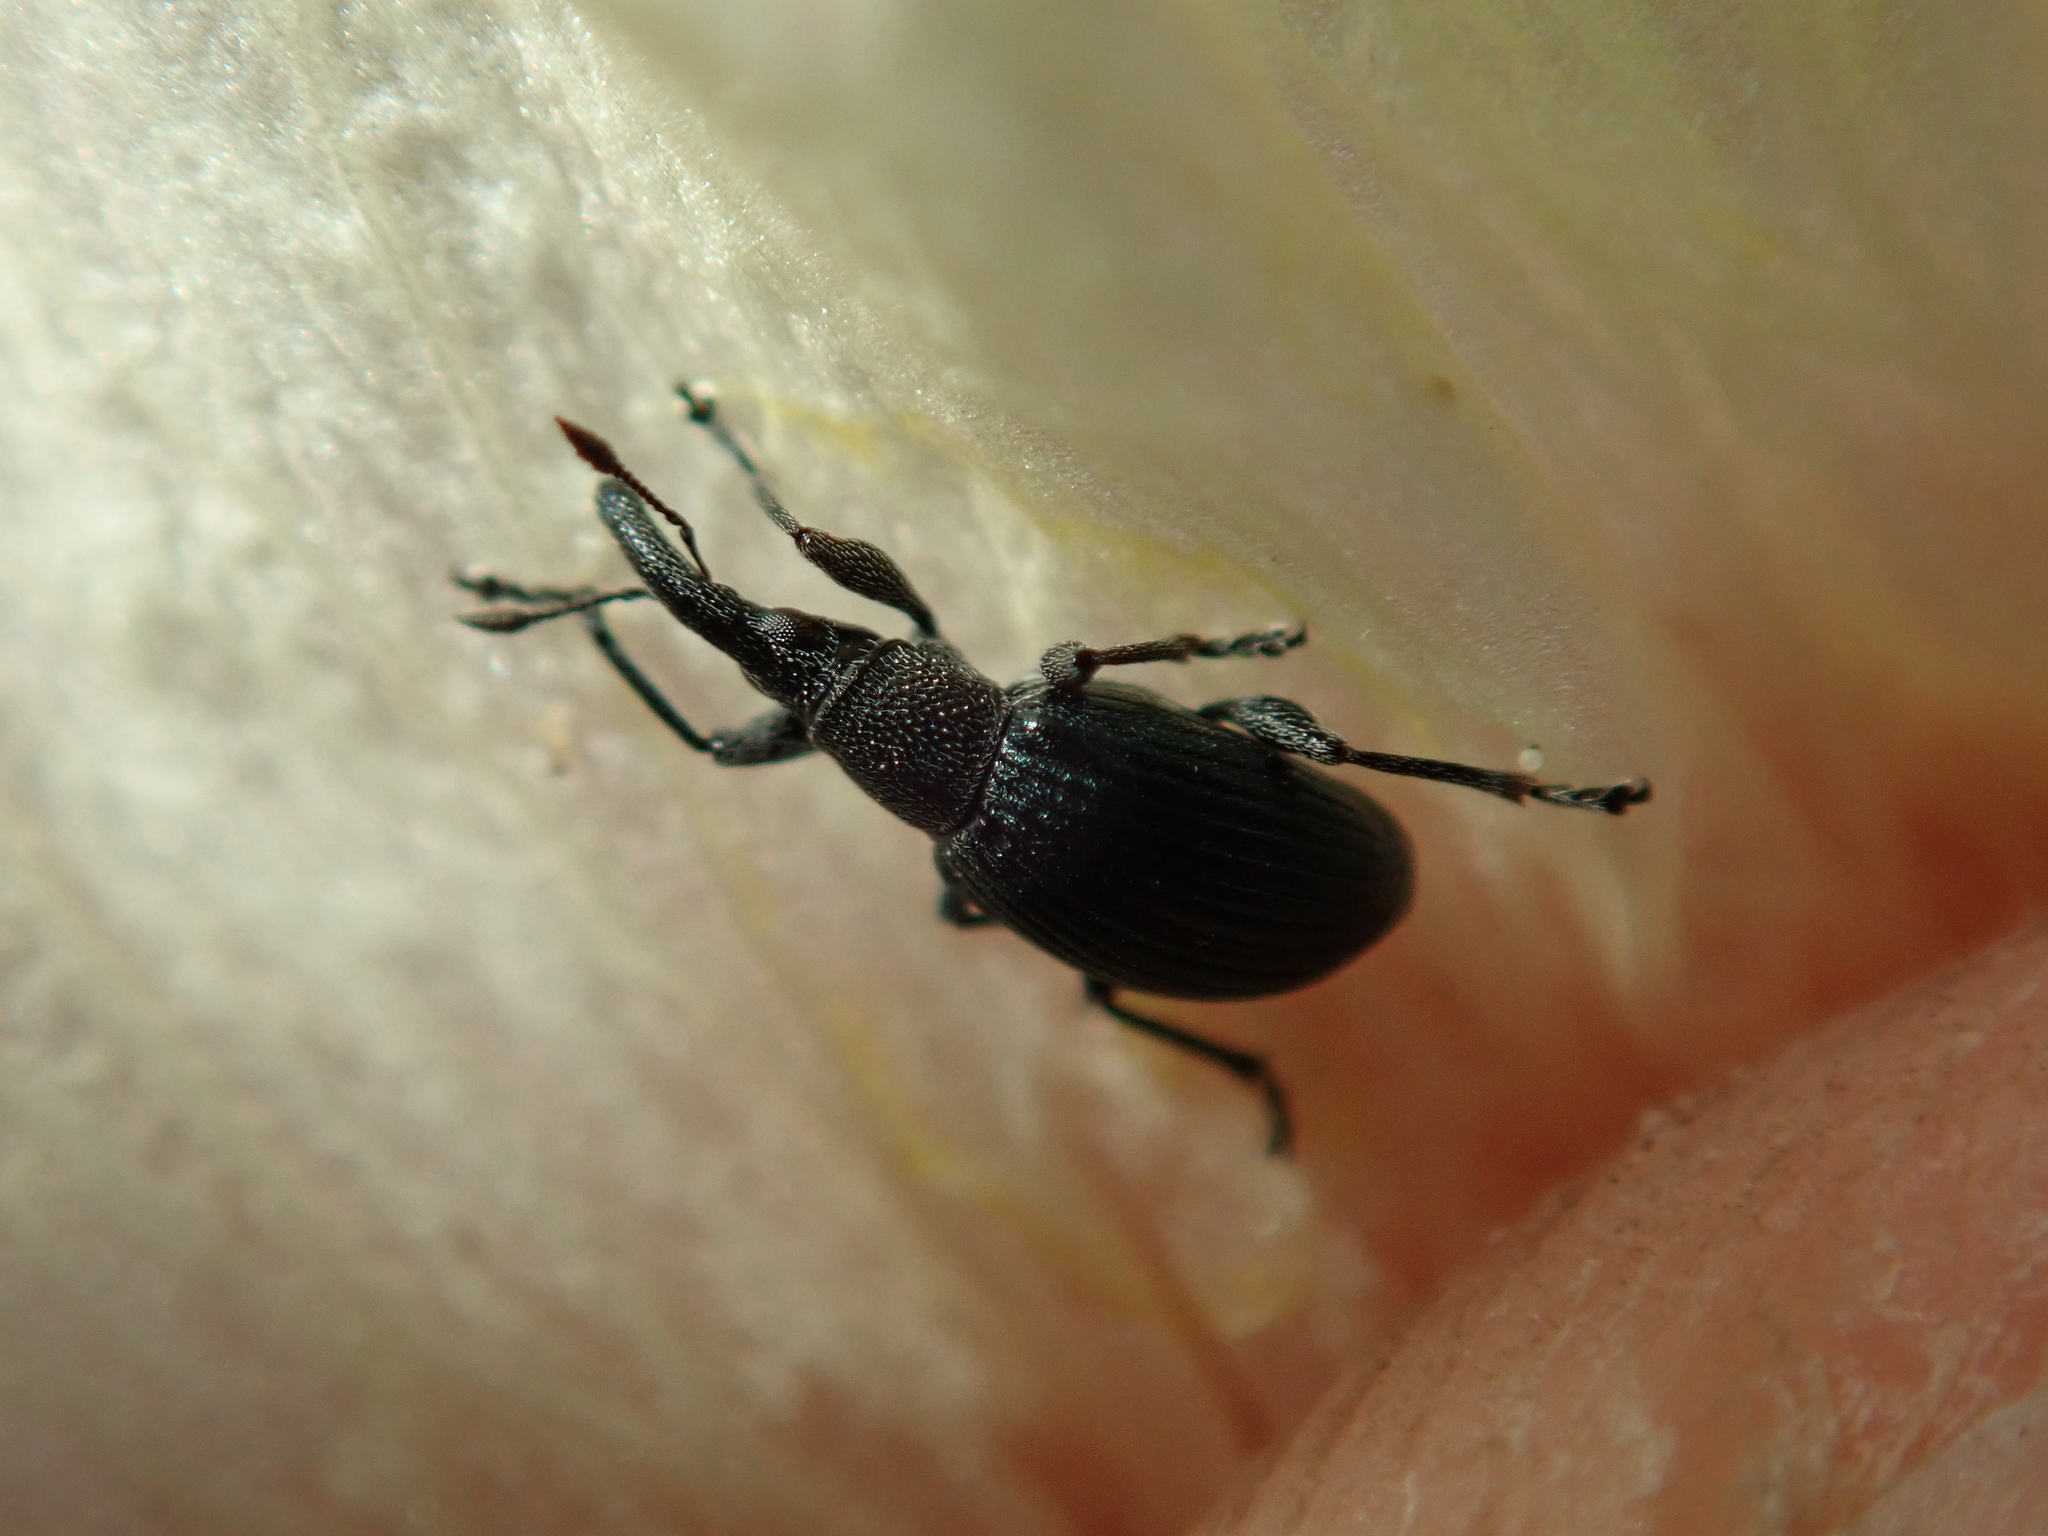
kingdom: Animalia
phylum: Arthropoda
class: Insecta
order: Coleoptera
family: Apionidae
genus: Aspidapion
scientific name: Aspidapion validum
